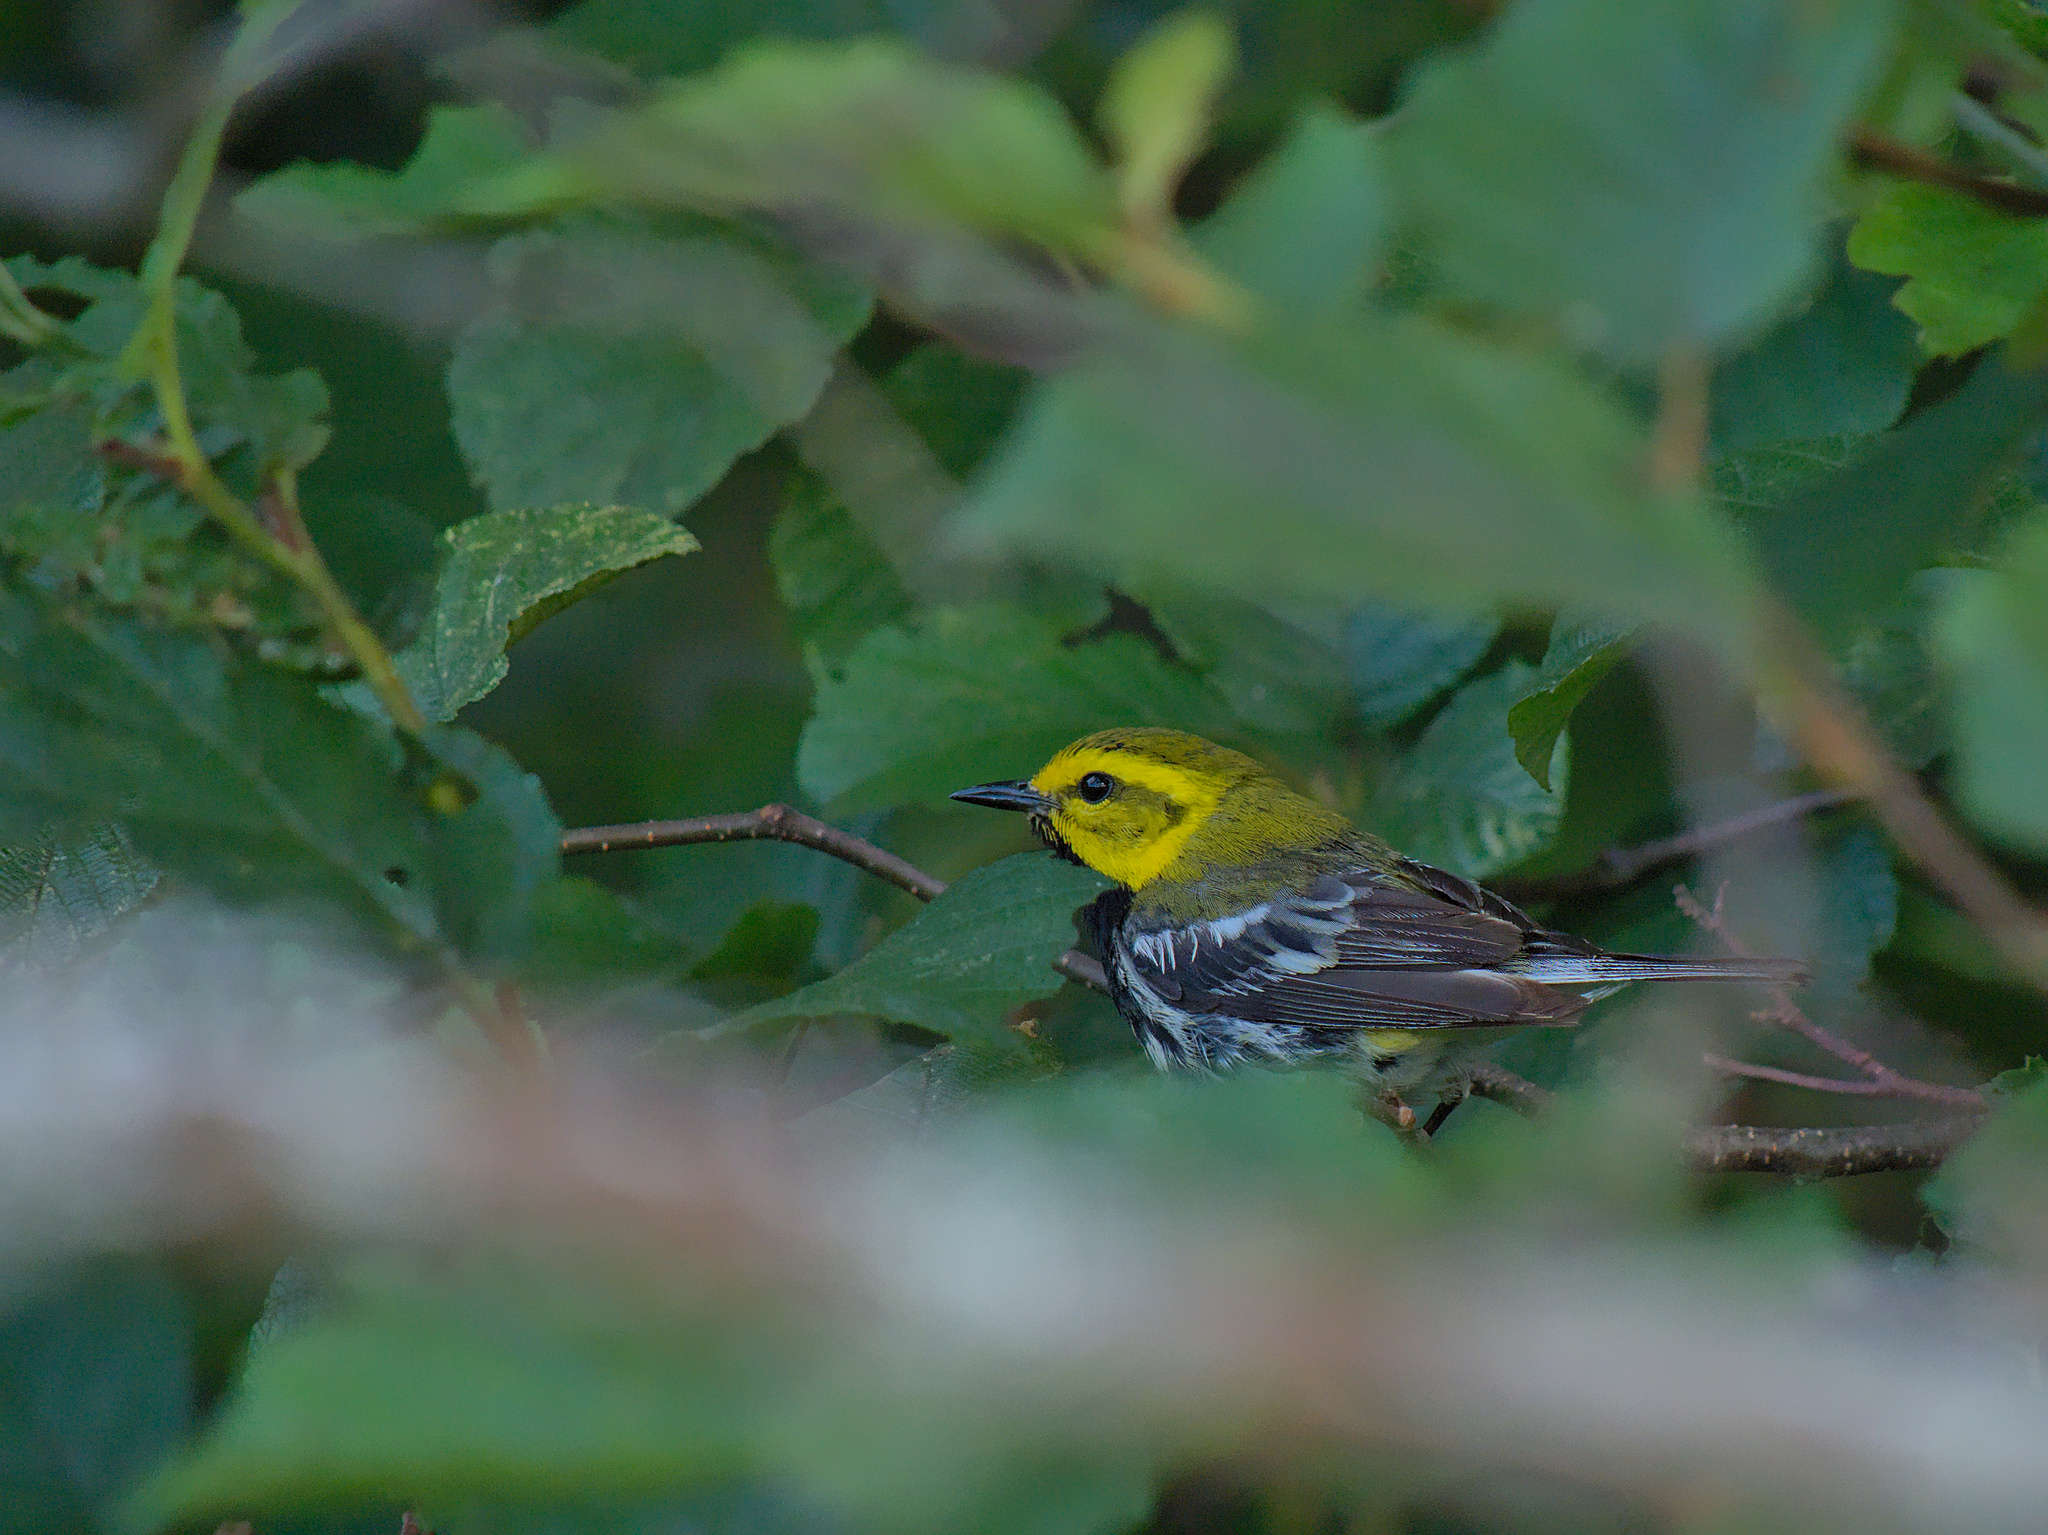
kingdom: Animalia
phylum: Chordata
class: Aves
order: Passeriformes
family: Parulidae
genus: Setophaga
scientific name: Setophaga virens
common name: Black-throated green warbler
